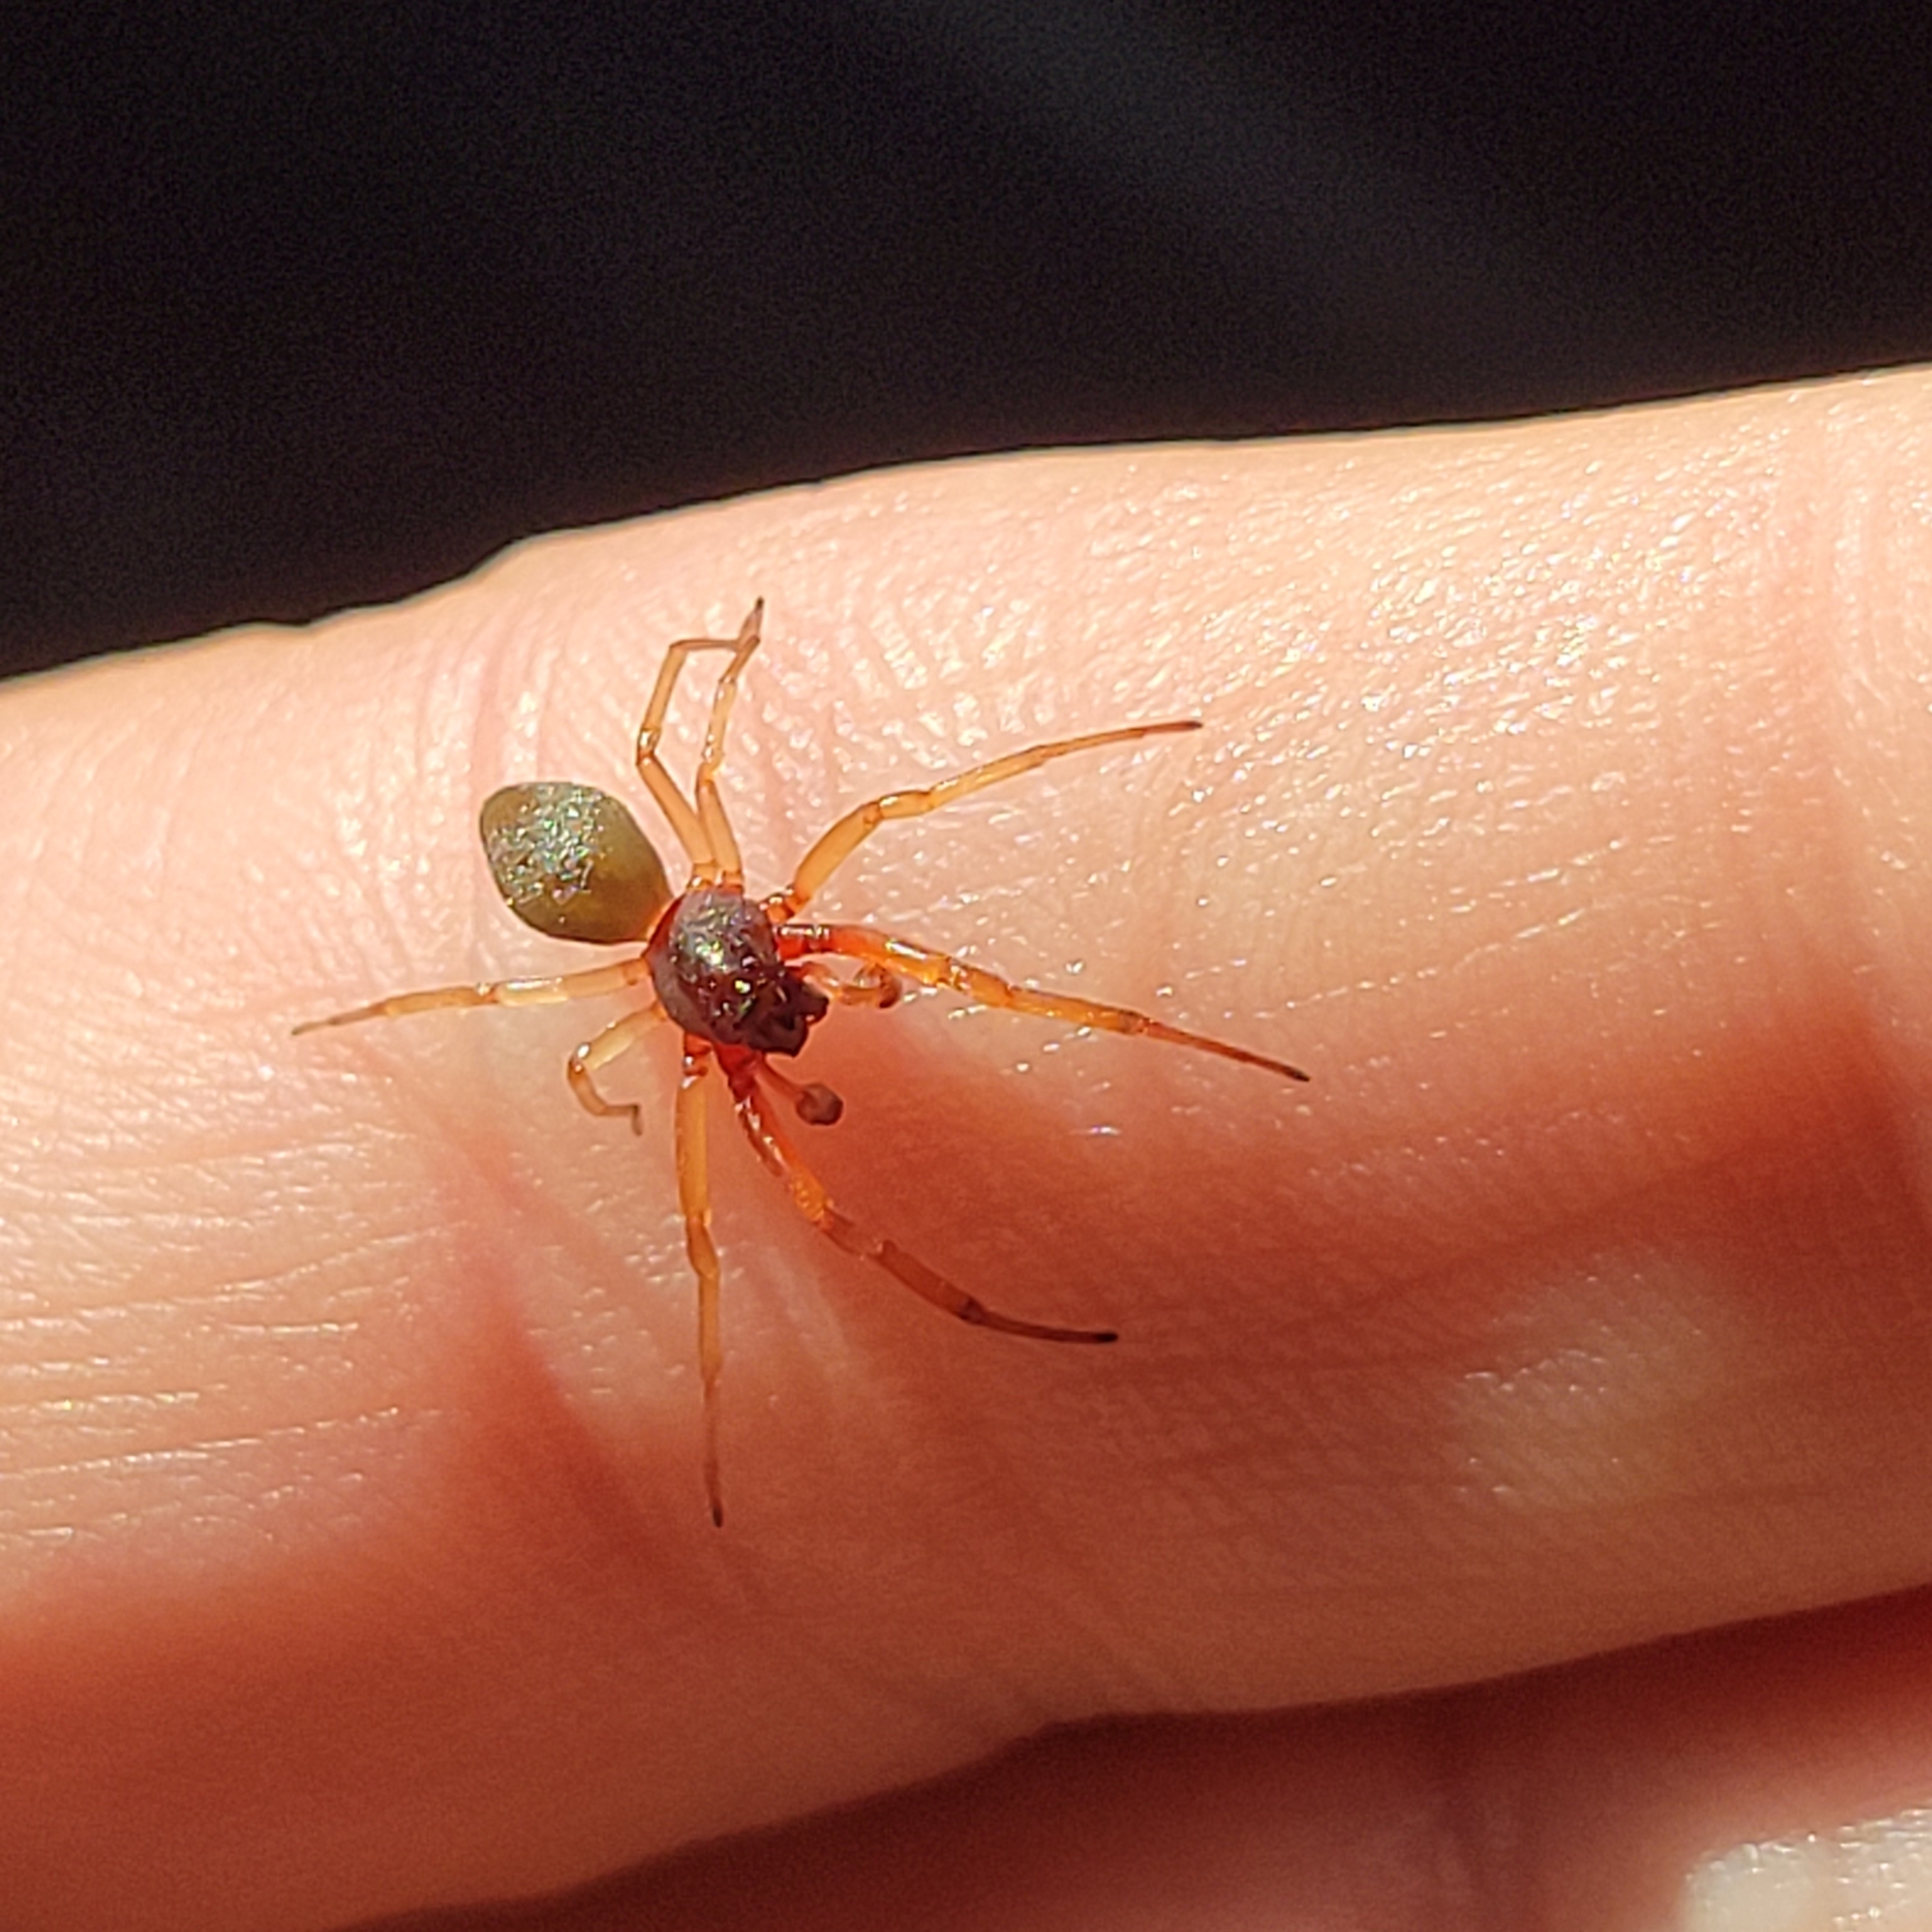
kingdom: Animalia
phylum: Arthropoda
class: Arachnida
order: Araneae
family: Trachelidae
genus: Trachelas
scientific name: Trachelas tranquillus
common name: Broad-faced sac spider
